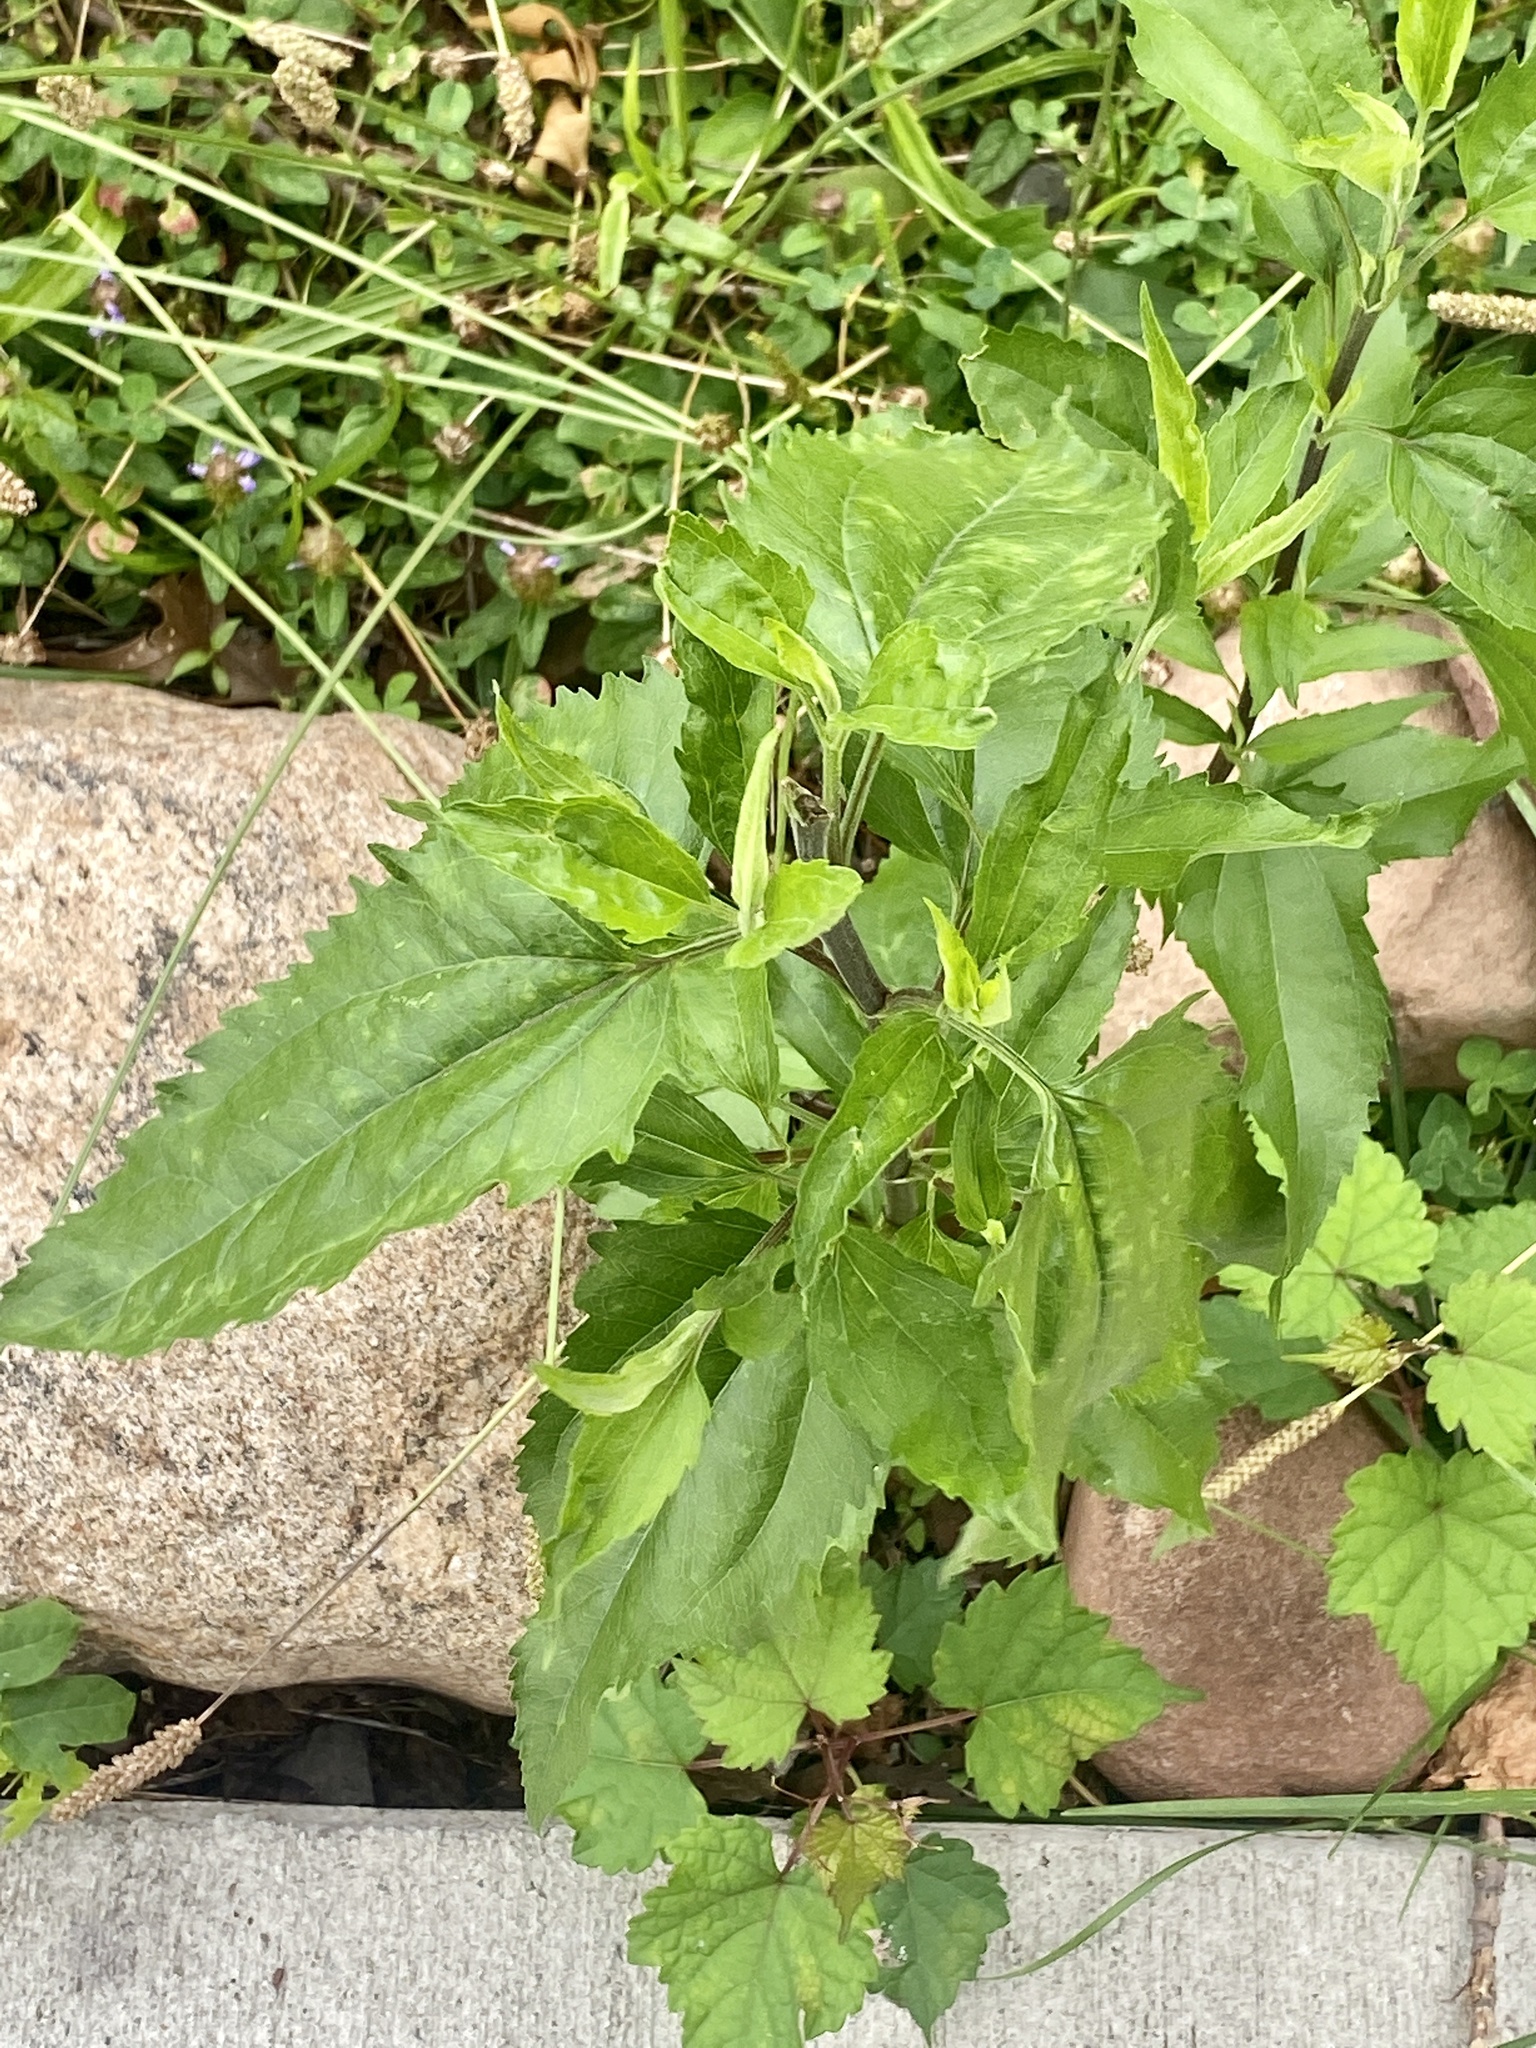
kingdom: Plantae
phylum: Tracheophyta
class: Magnoliopsida
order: Asterales
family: Asteraceae
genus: Eupatorium
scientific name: Eupatorium serotinum
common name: Late boneset
